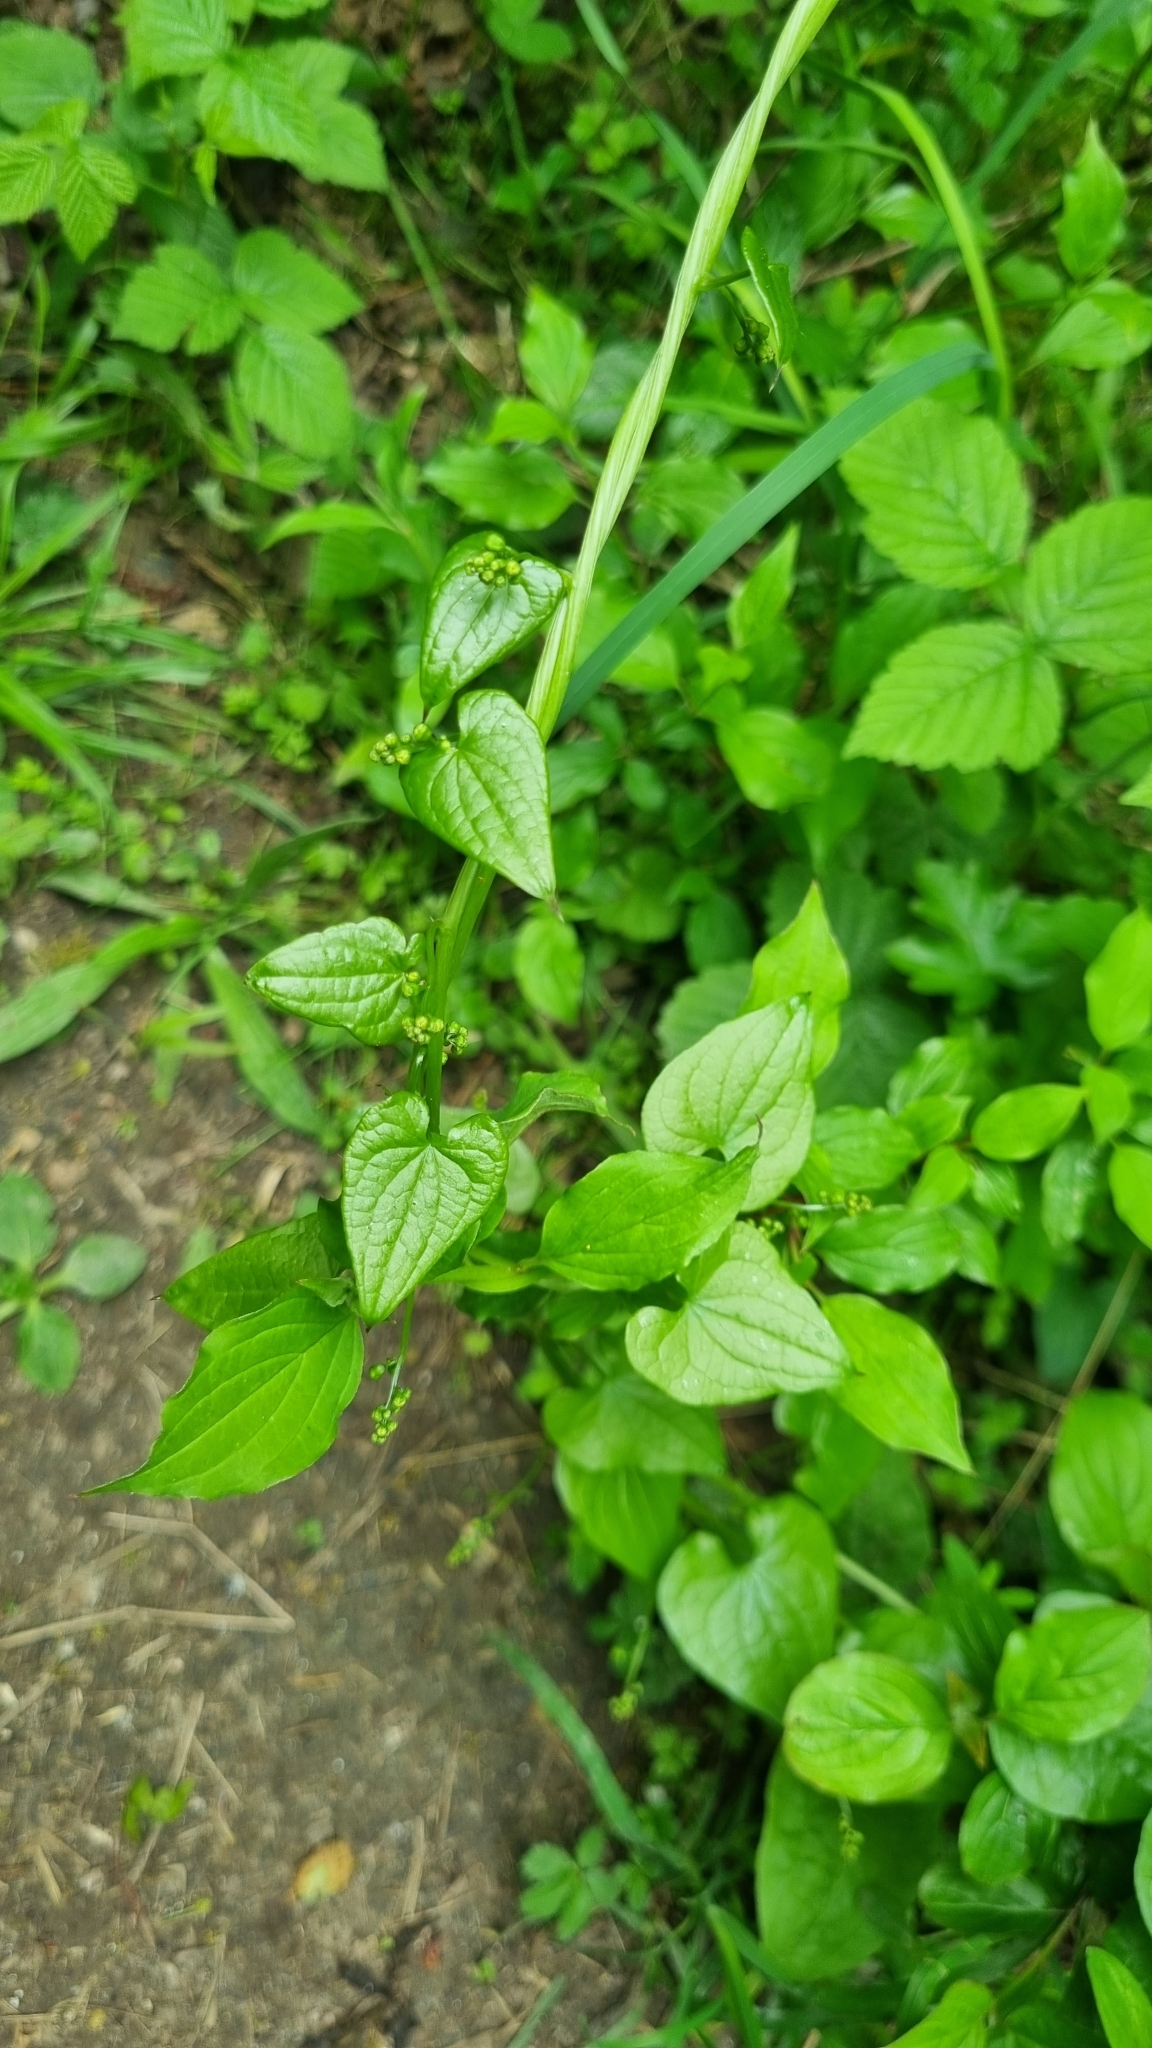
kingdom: Plantae
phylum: Tracheophyta
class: Liliopsida
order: Dioscoreales
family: Dioscoreaceae
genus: Dioscorea
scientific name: Dioscorea communis
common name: Black-bindweed
